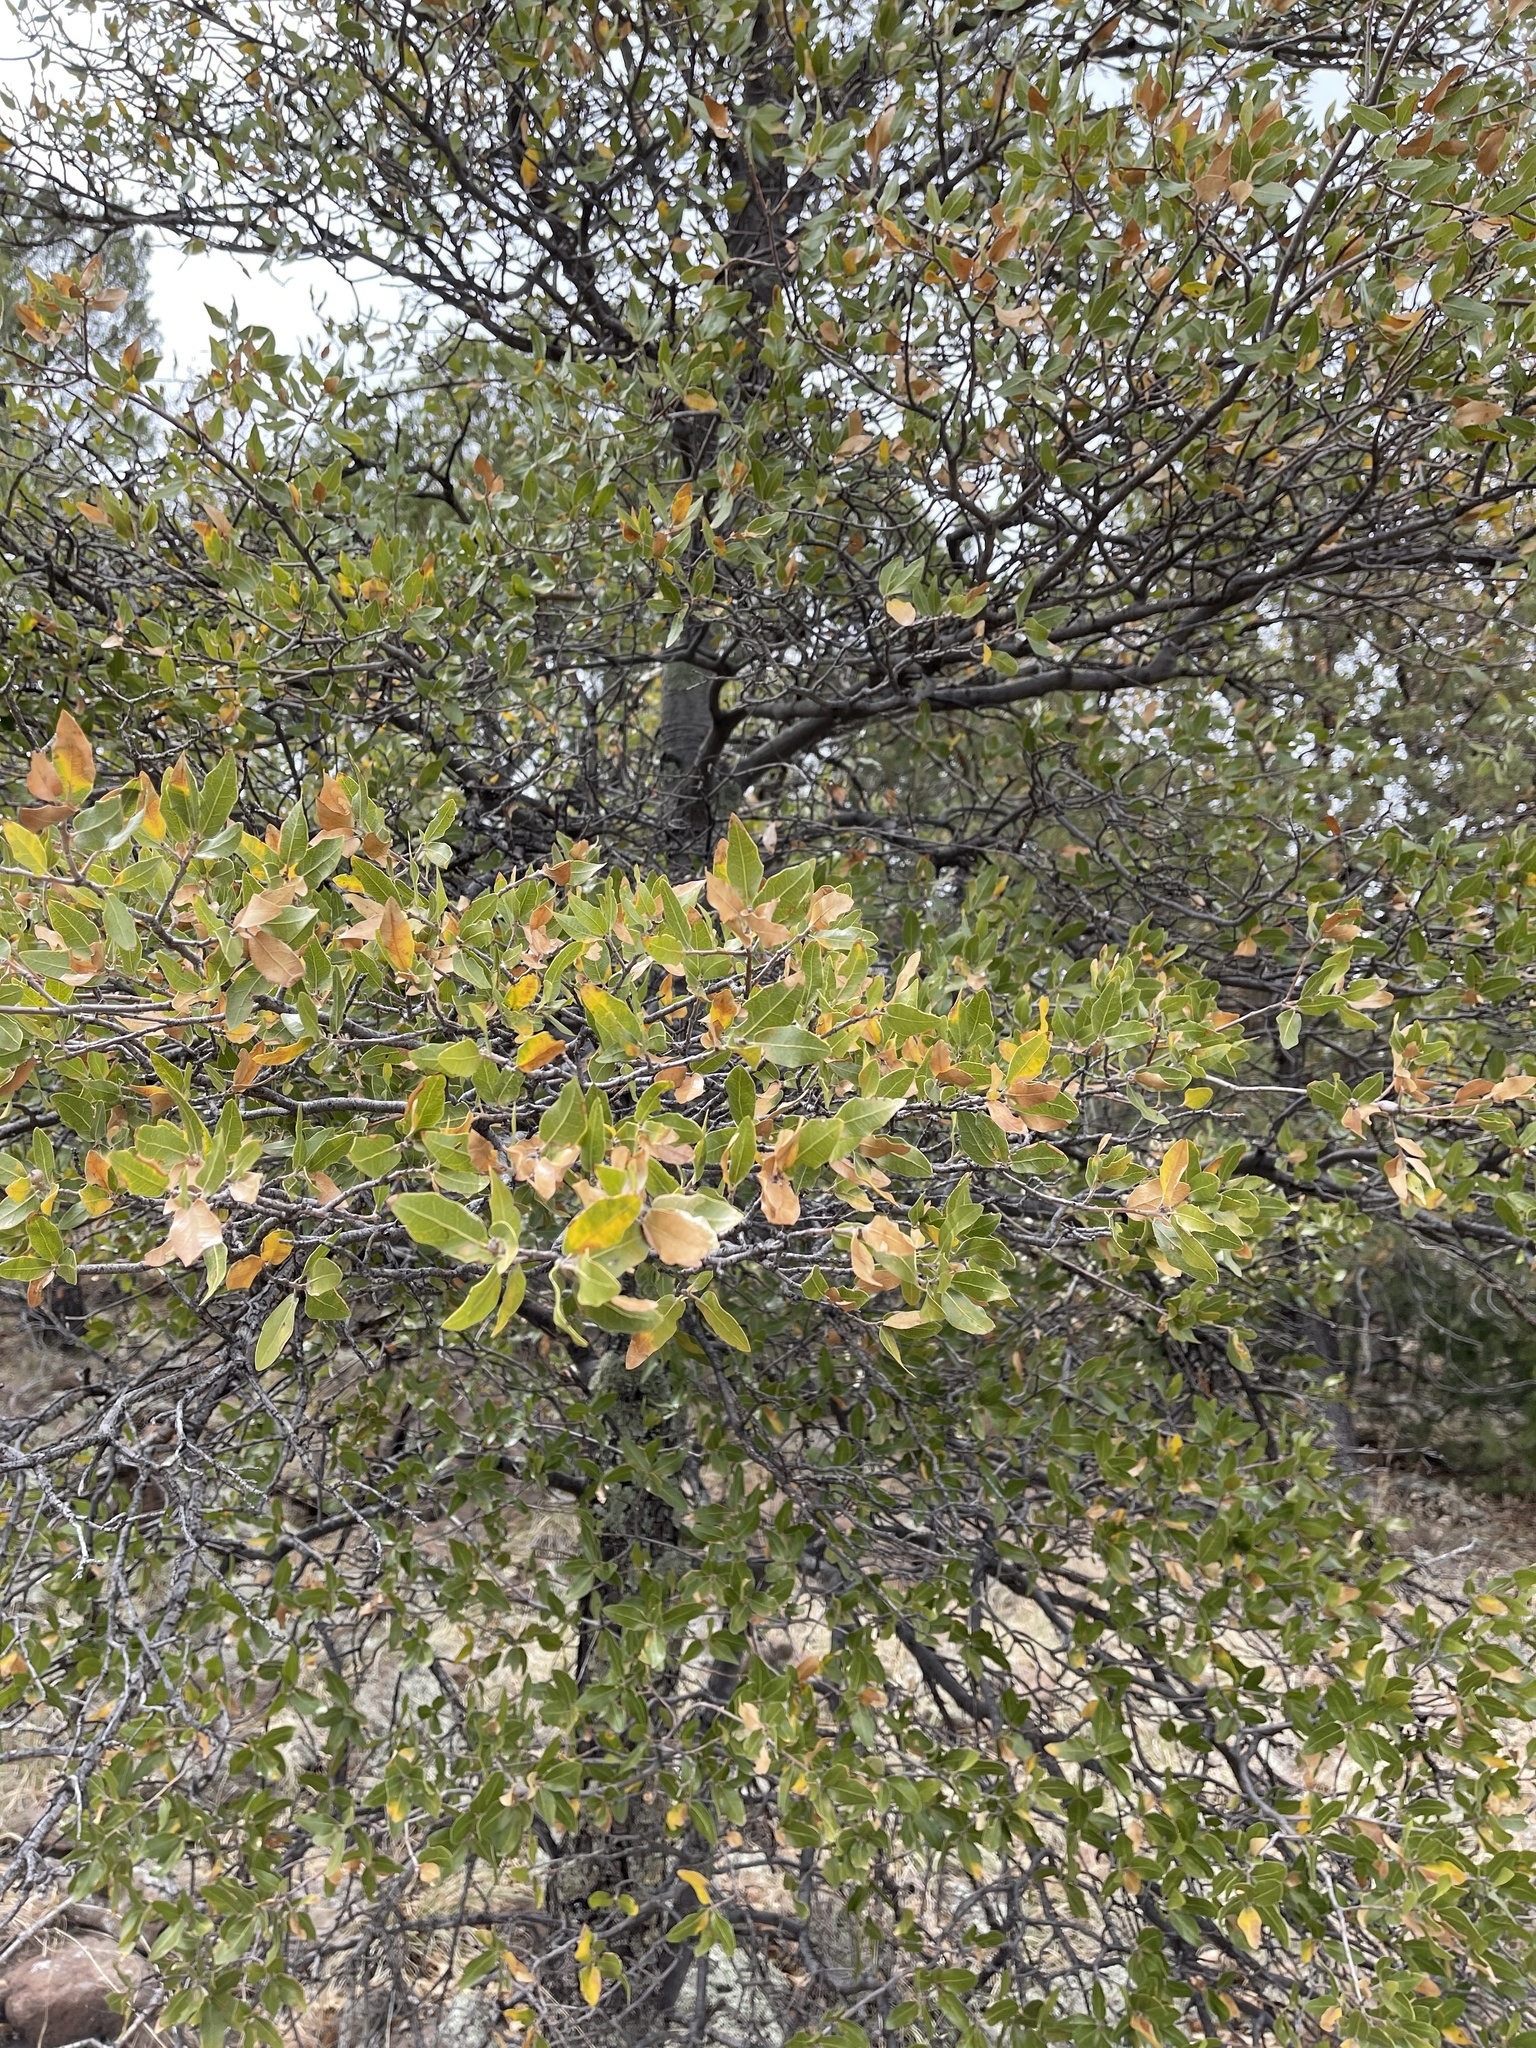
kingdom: Plantae
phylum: Tracheophyta
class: Magnoliopsida
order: Fagales
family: Fagaceae
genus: Quercus
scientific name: Quercus emoryi
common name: Emory oak
